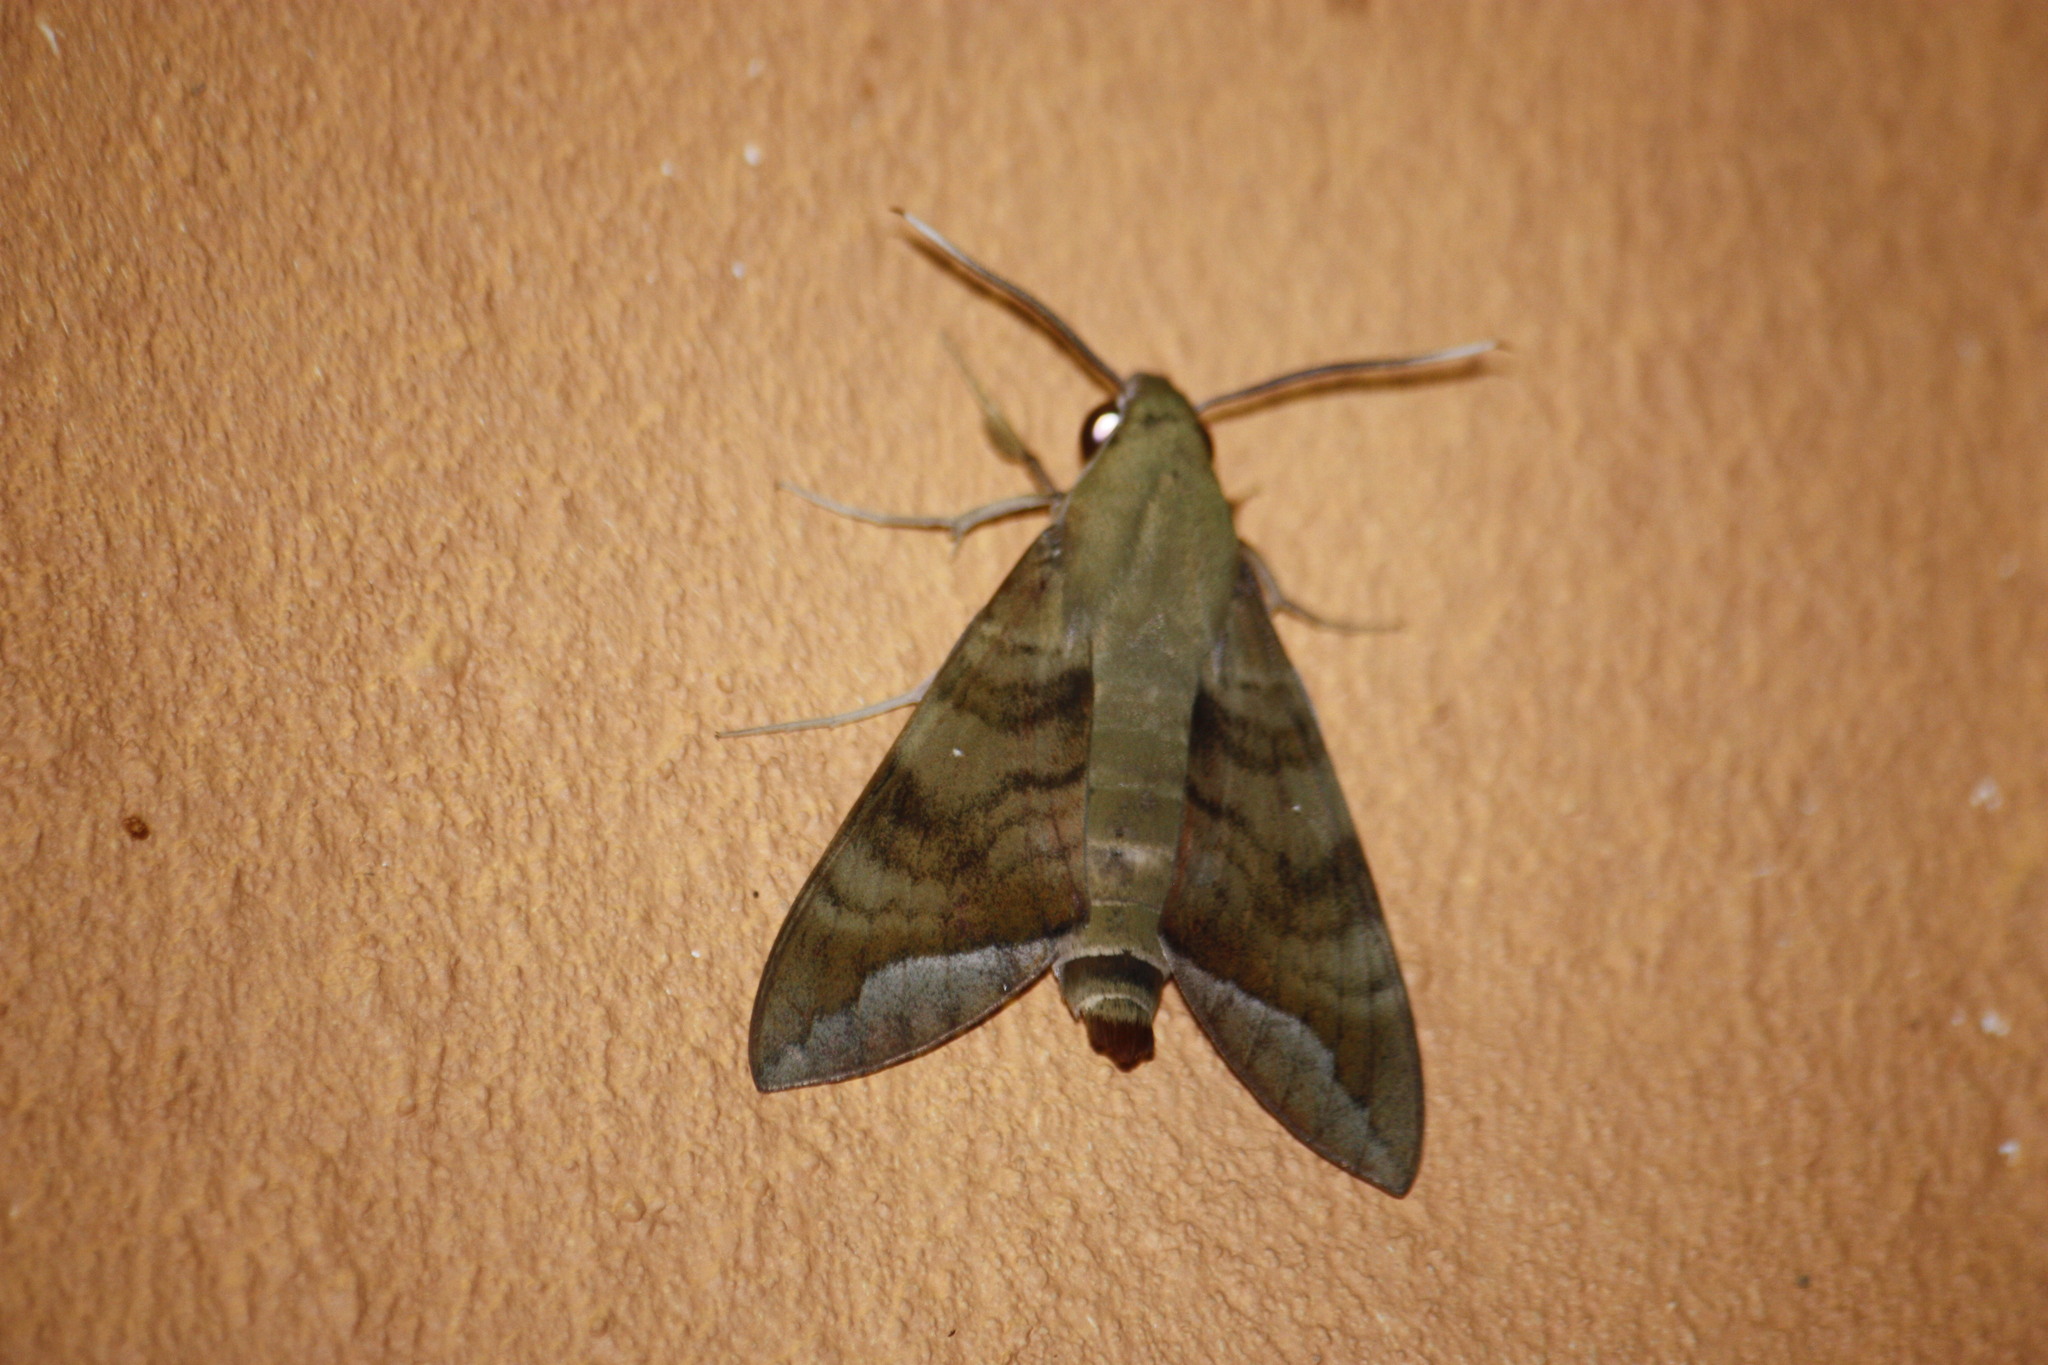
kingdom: Animalia
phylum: Arthropoda
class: Insecta
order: Lepidoptera
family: Sphingidae
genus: Nephele
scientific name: Nephele comma
